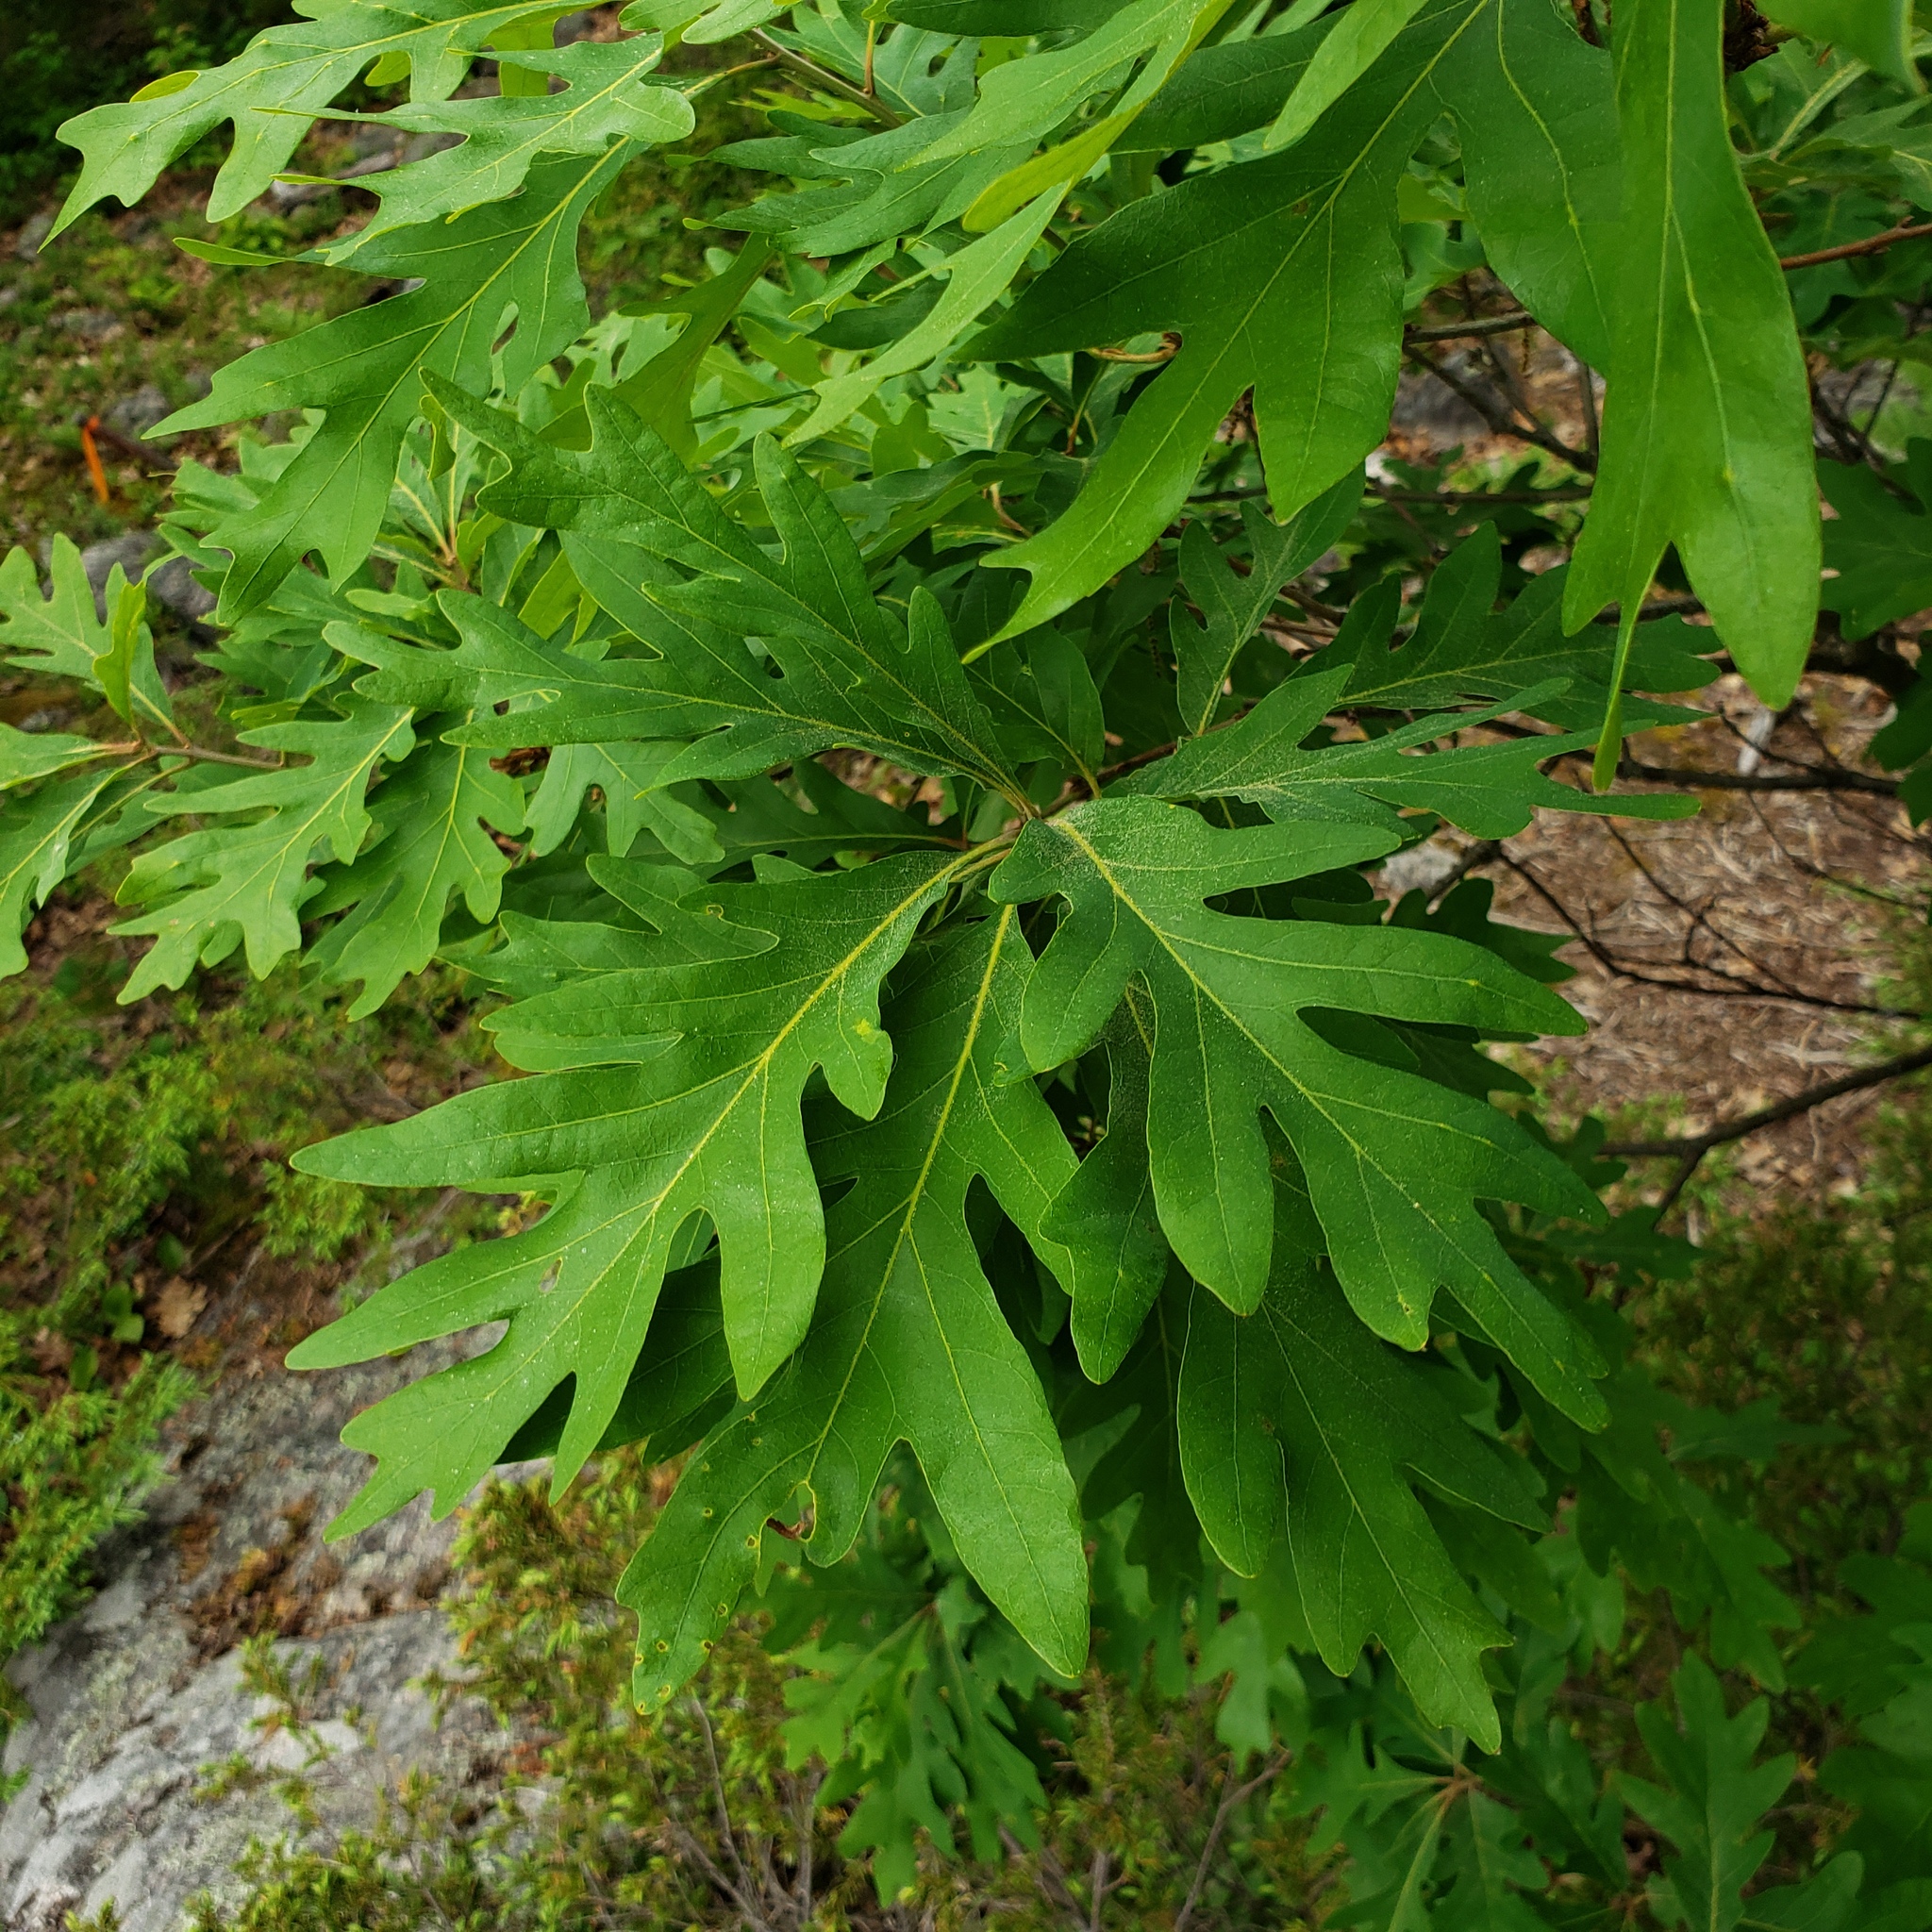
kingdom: Plantae
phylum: Tracheophyta
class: Magnoliopsida
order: Fagales
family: Fagaceae
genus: Quercus
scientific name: Quercus alba
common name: White oak
